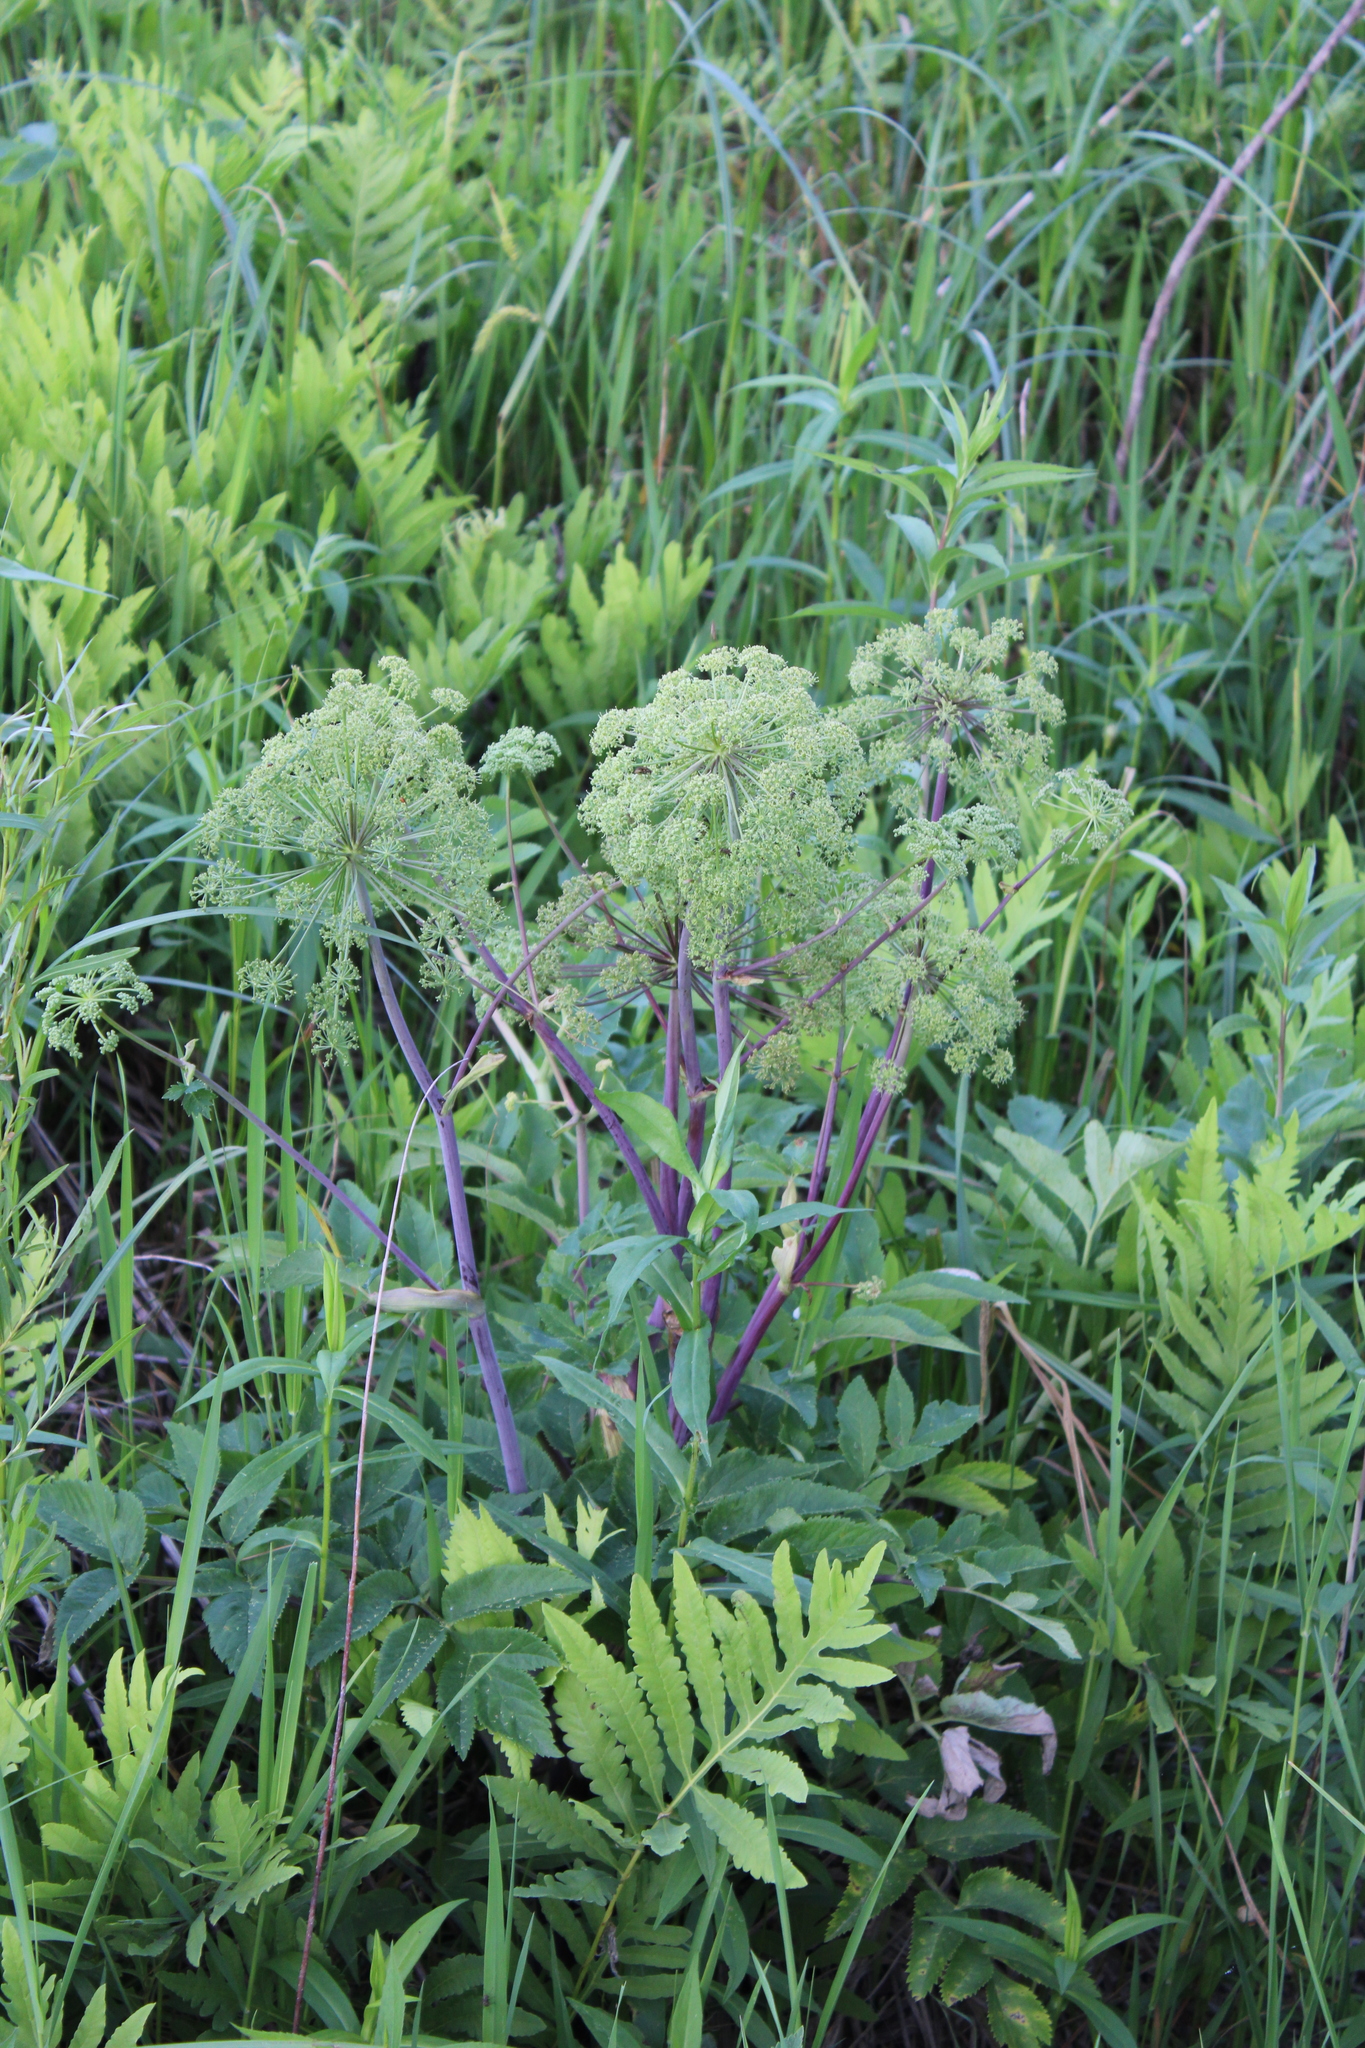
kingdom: Plantae
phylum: Tracheophyta
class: Magnoliopsida
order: Apiales
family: Apiaceae
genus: Angelica
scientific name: Angelica atropurpurea
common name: Great angelica
